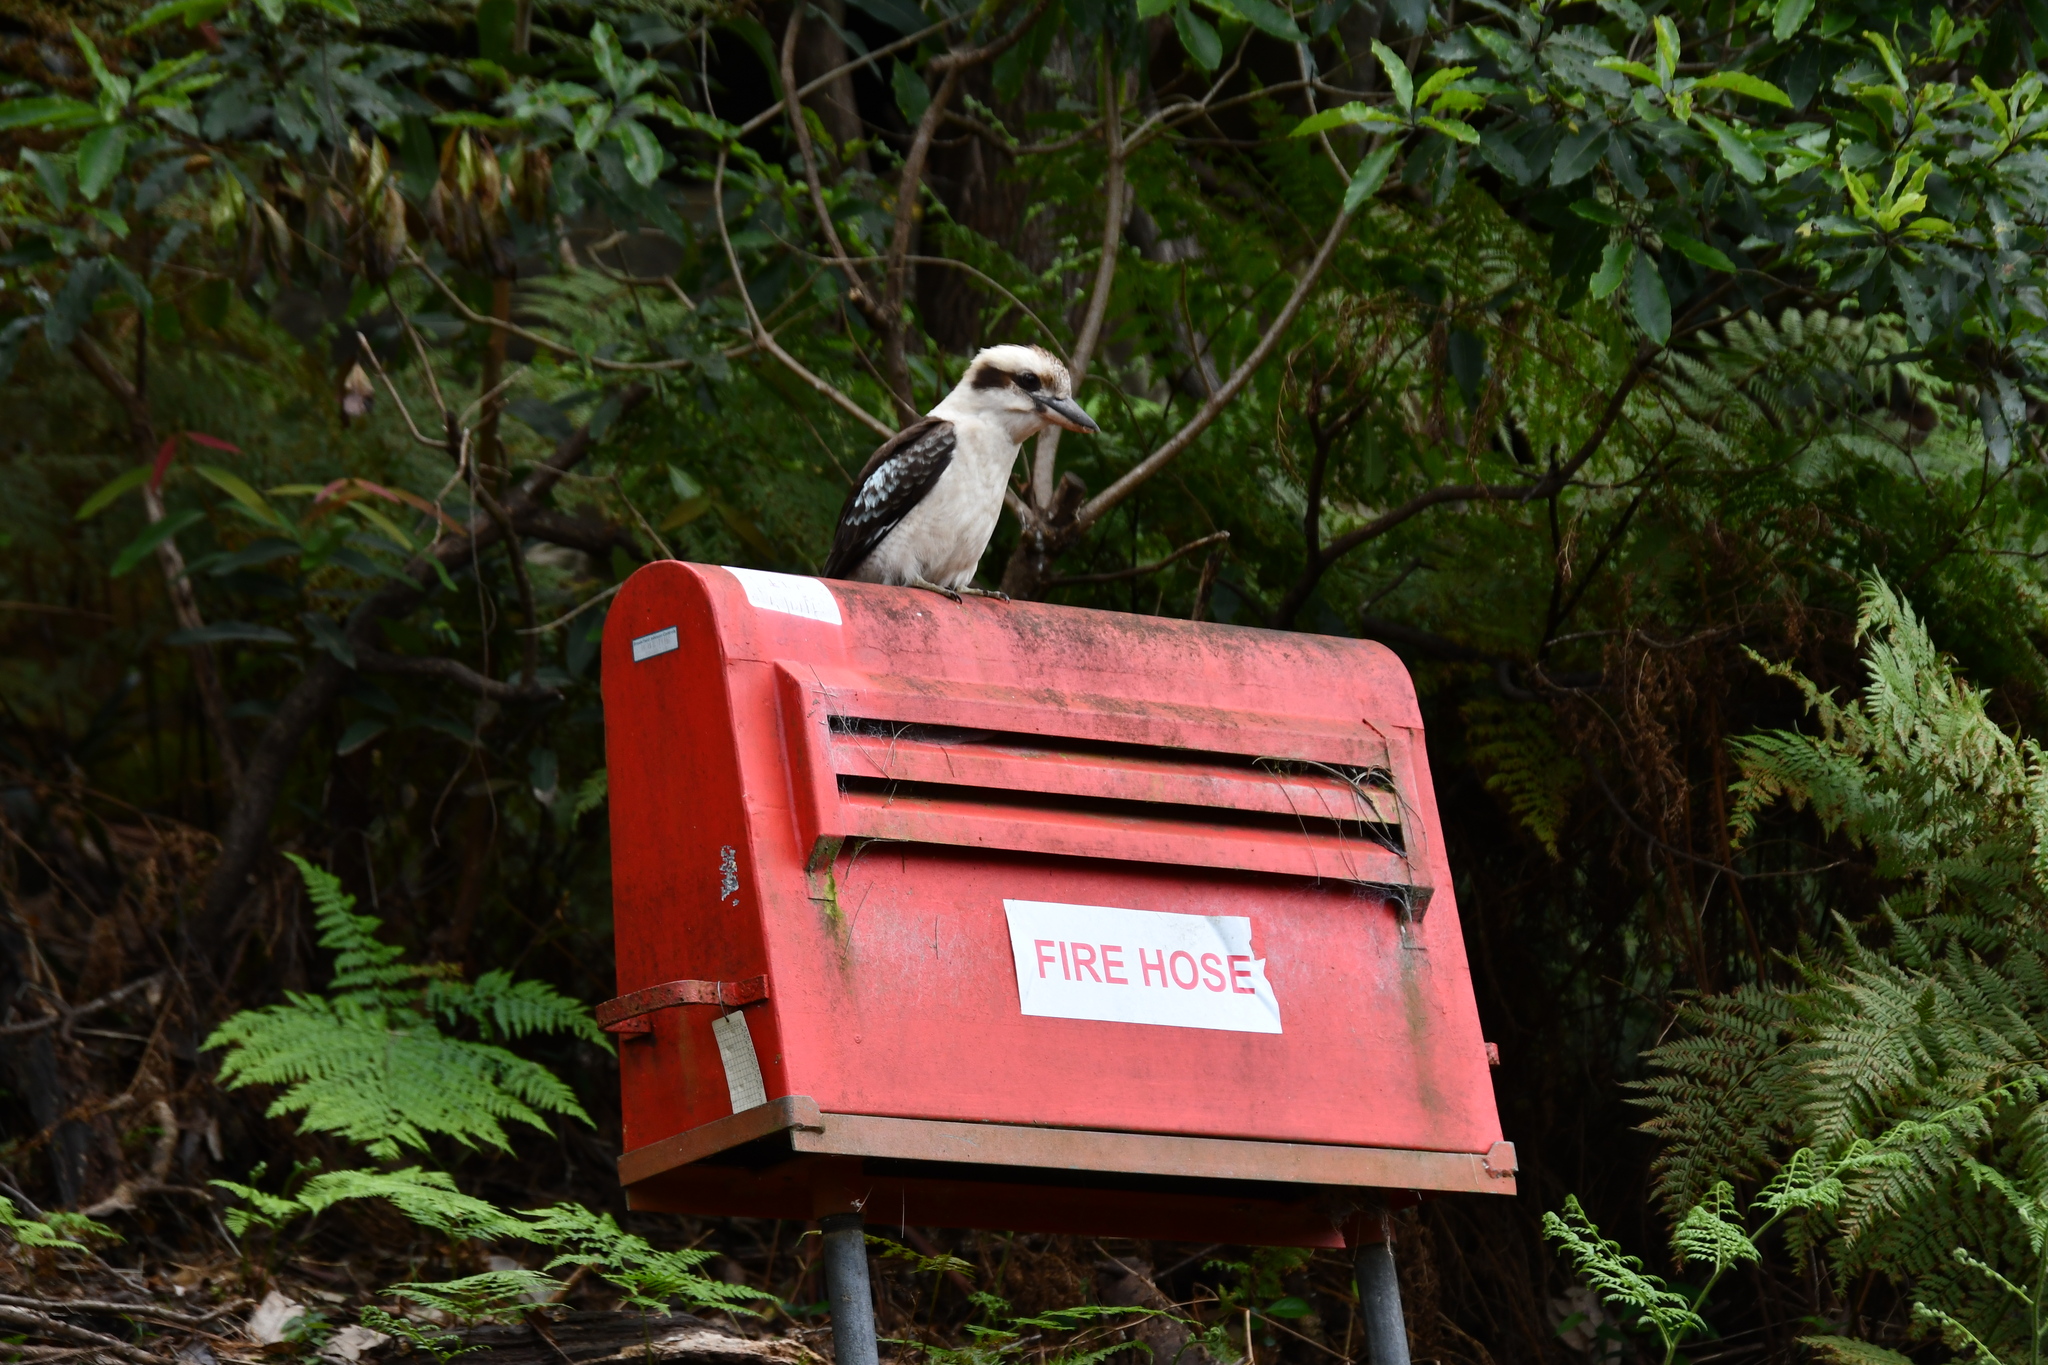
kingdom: Animalia
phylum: Chordata
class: Aves
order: Coraciiformes
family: Alcedinidae
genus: Dacelo
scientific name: Dacelo novaeguineae
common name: Laughing kookaburra
